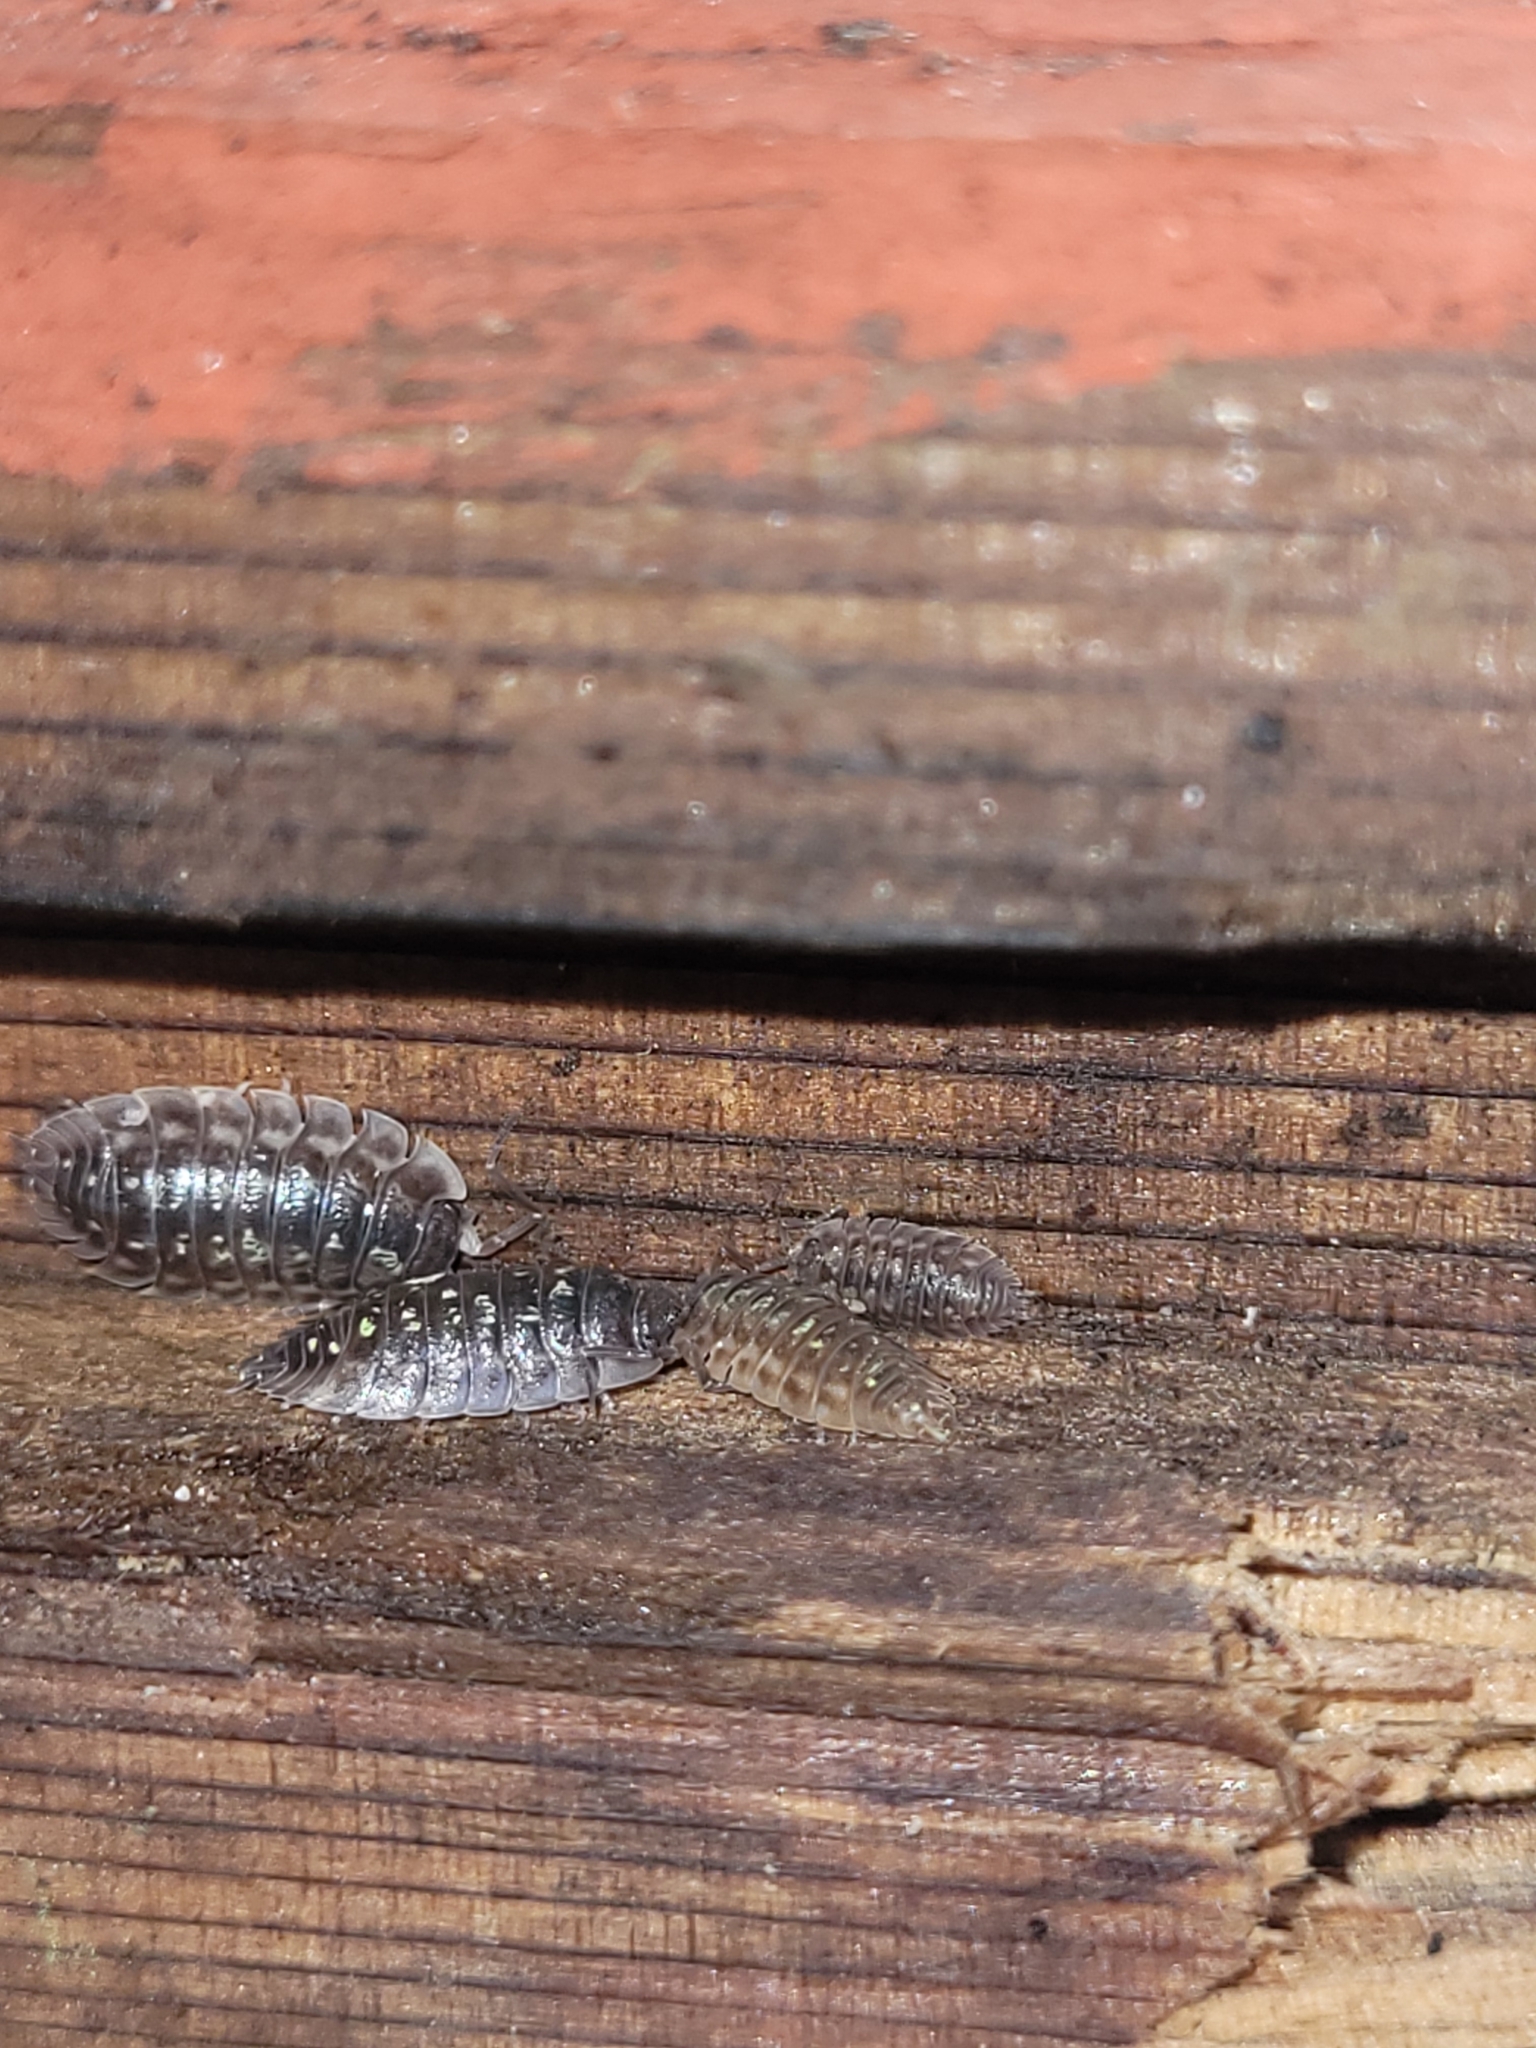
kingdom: Animalia
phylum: Arthropoda
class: Malacostraca
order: Isopoda
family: Oniscidae
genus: Oniscus
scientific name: Oniscus asellus
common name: Common shiny woodlouse
